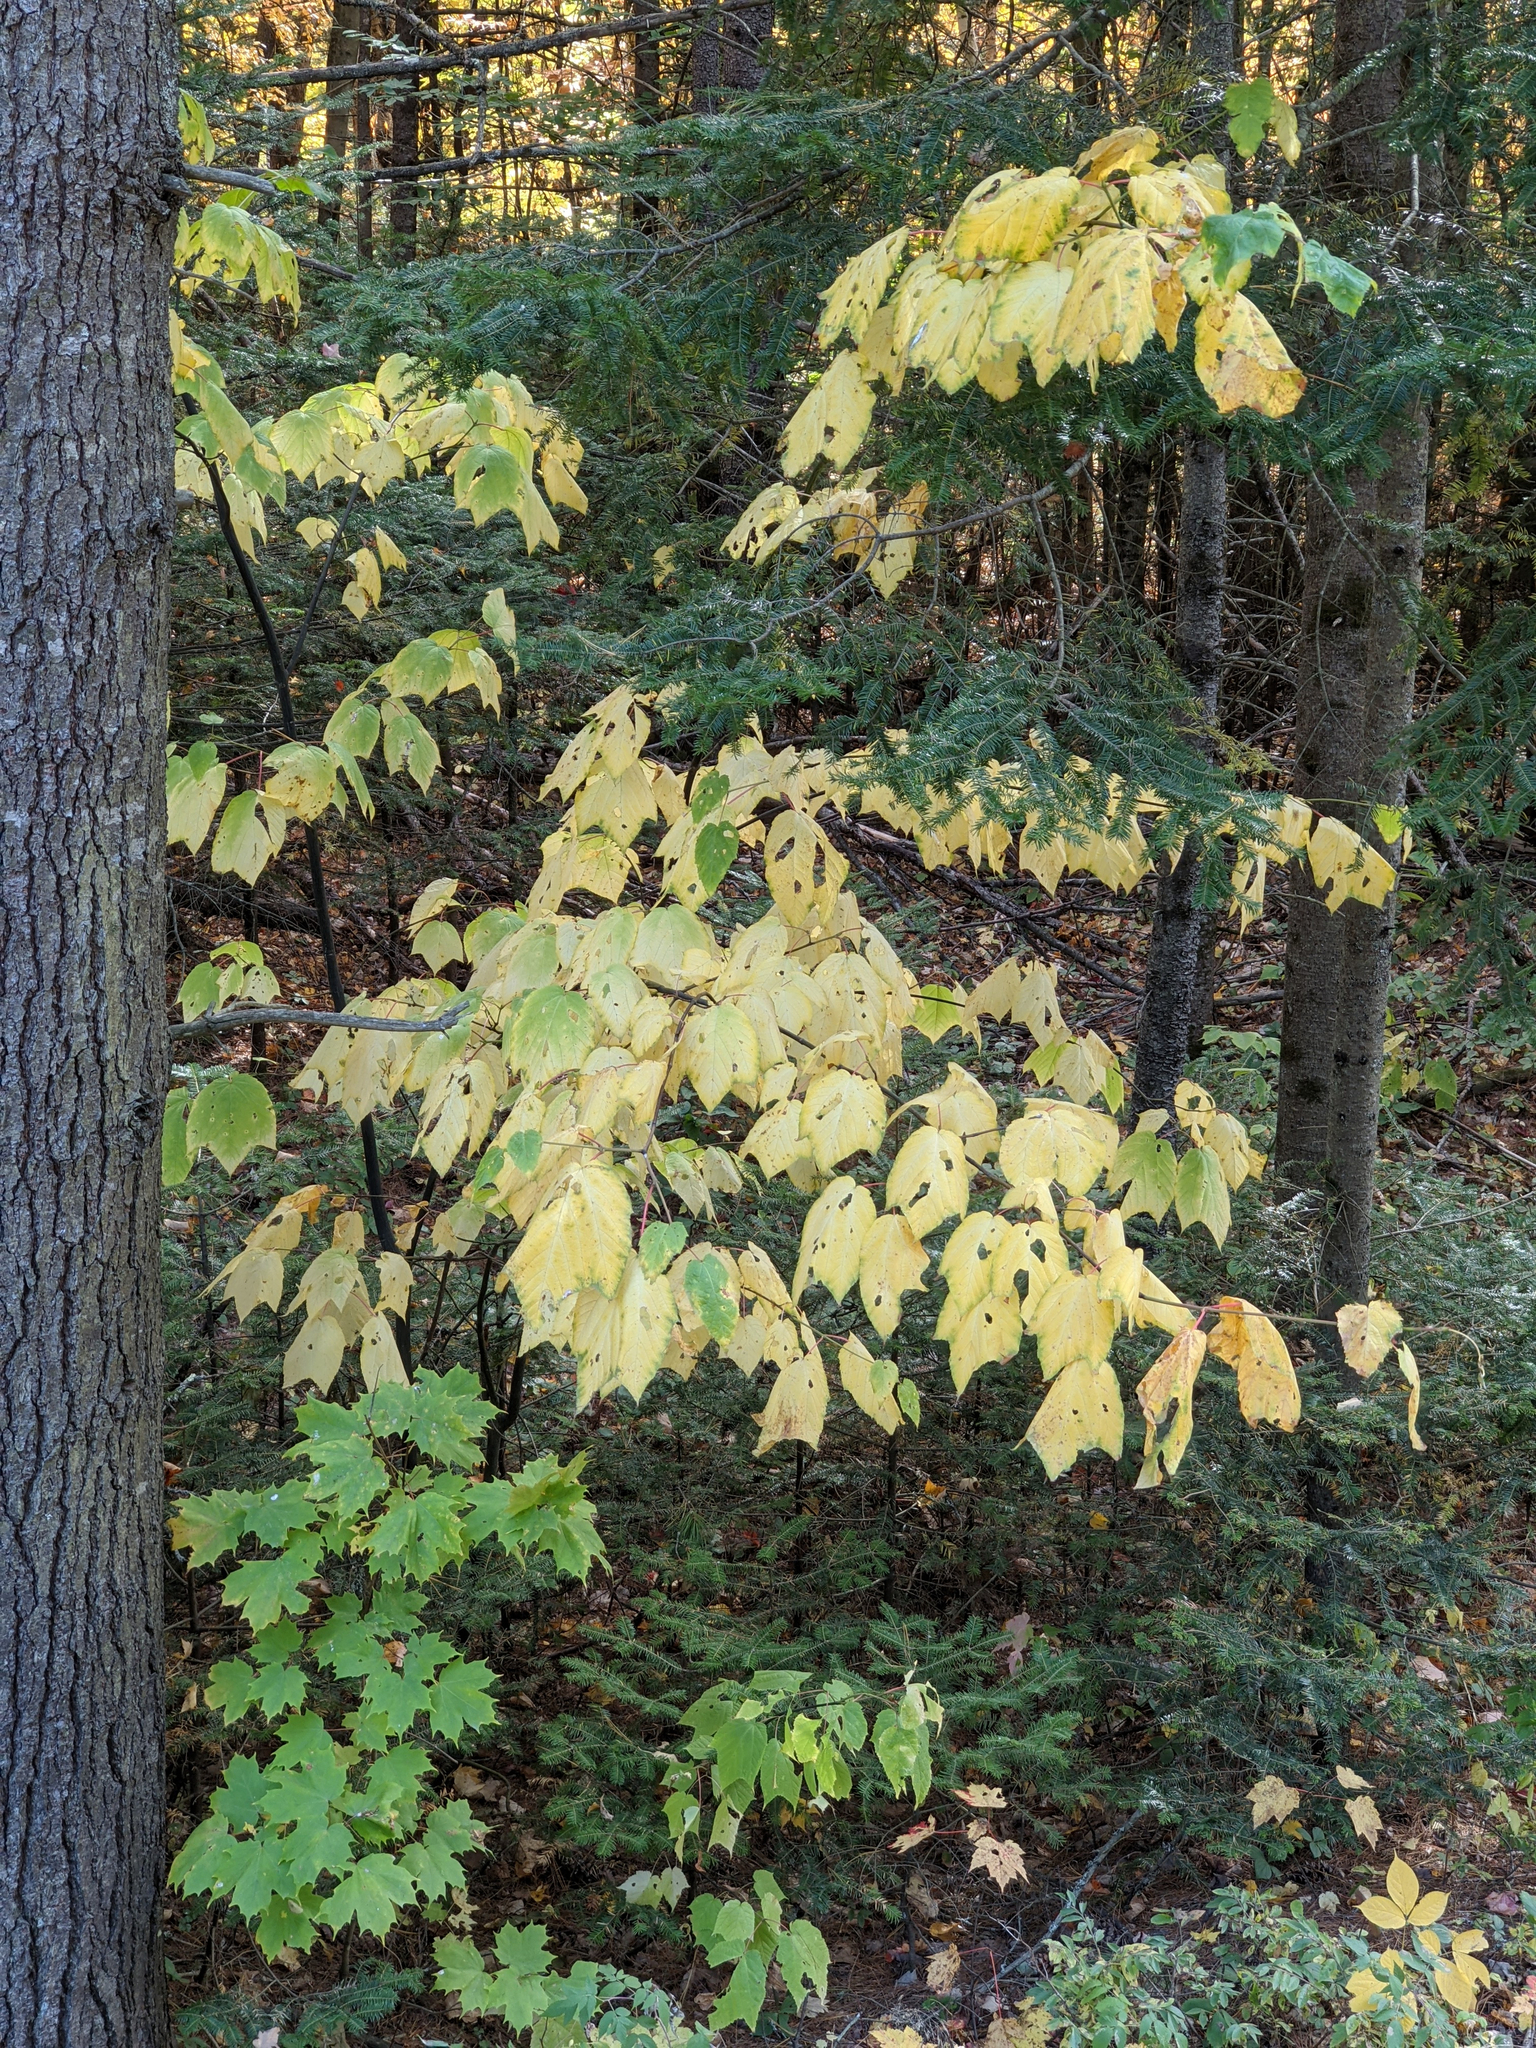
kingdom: Plantae
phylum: Tracheophyta
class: Magnoliopsida
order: Sapindales
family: Sapindaceae
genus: Acer
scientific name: Acer pensylvanicum
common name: Moosewood
